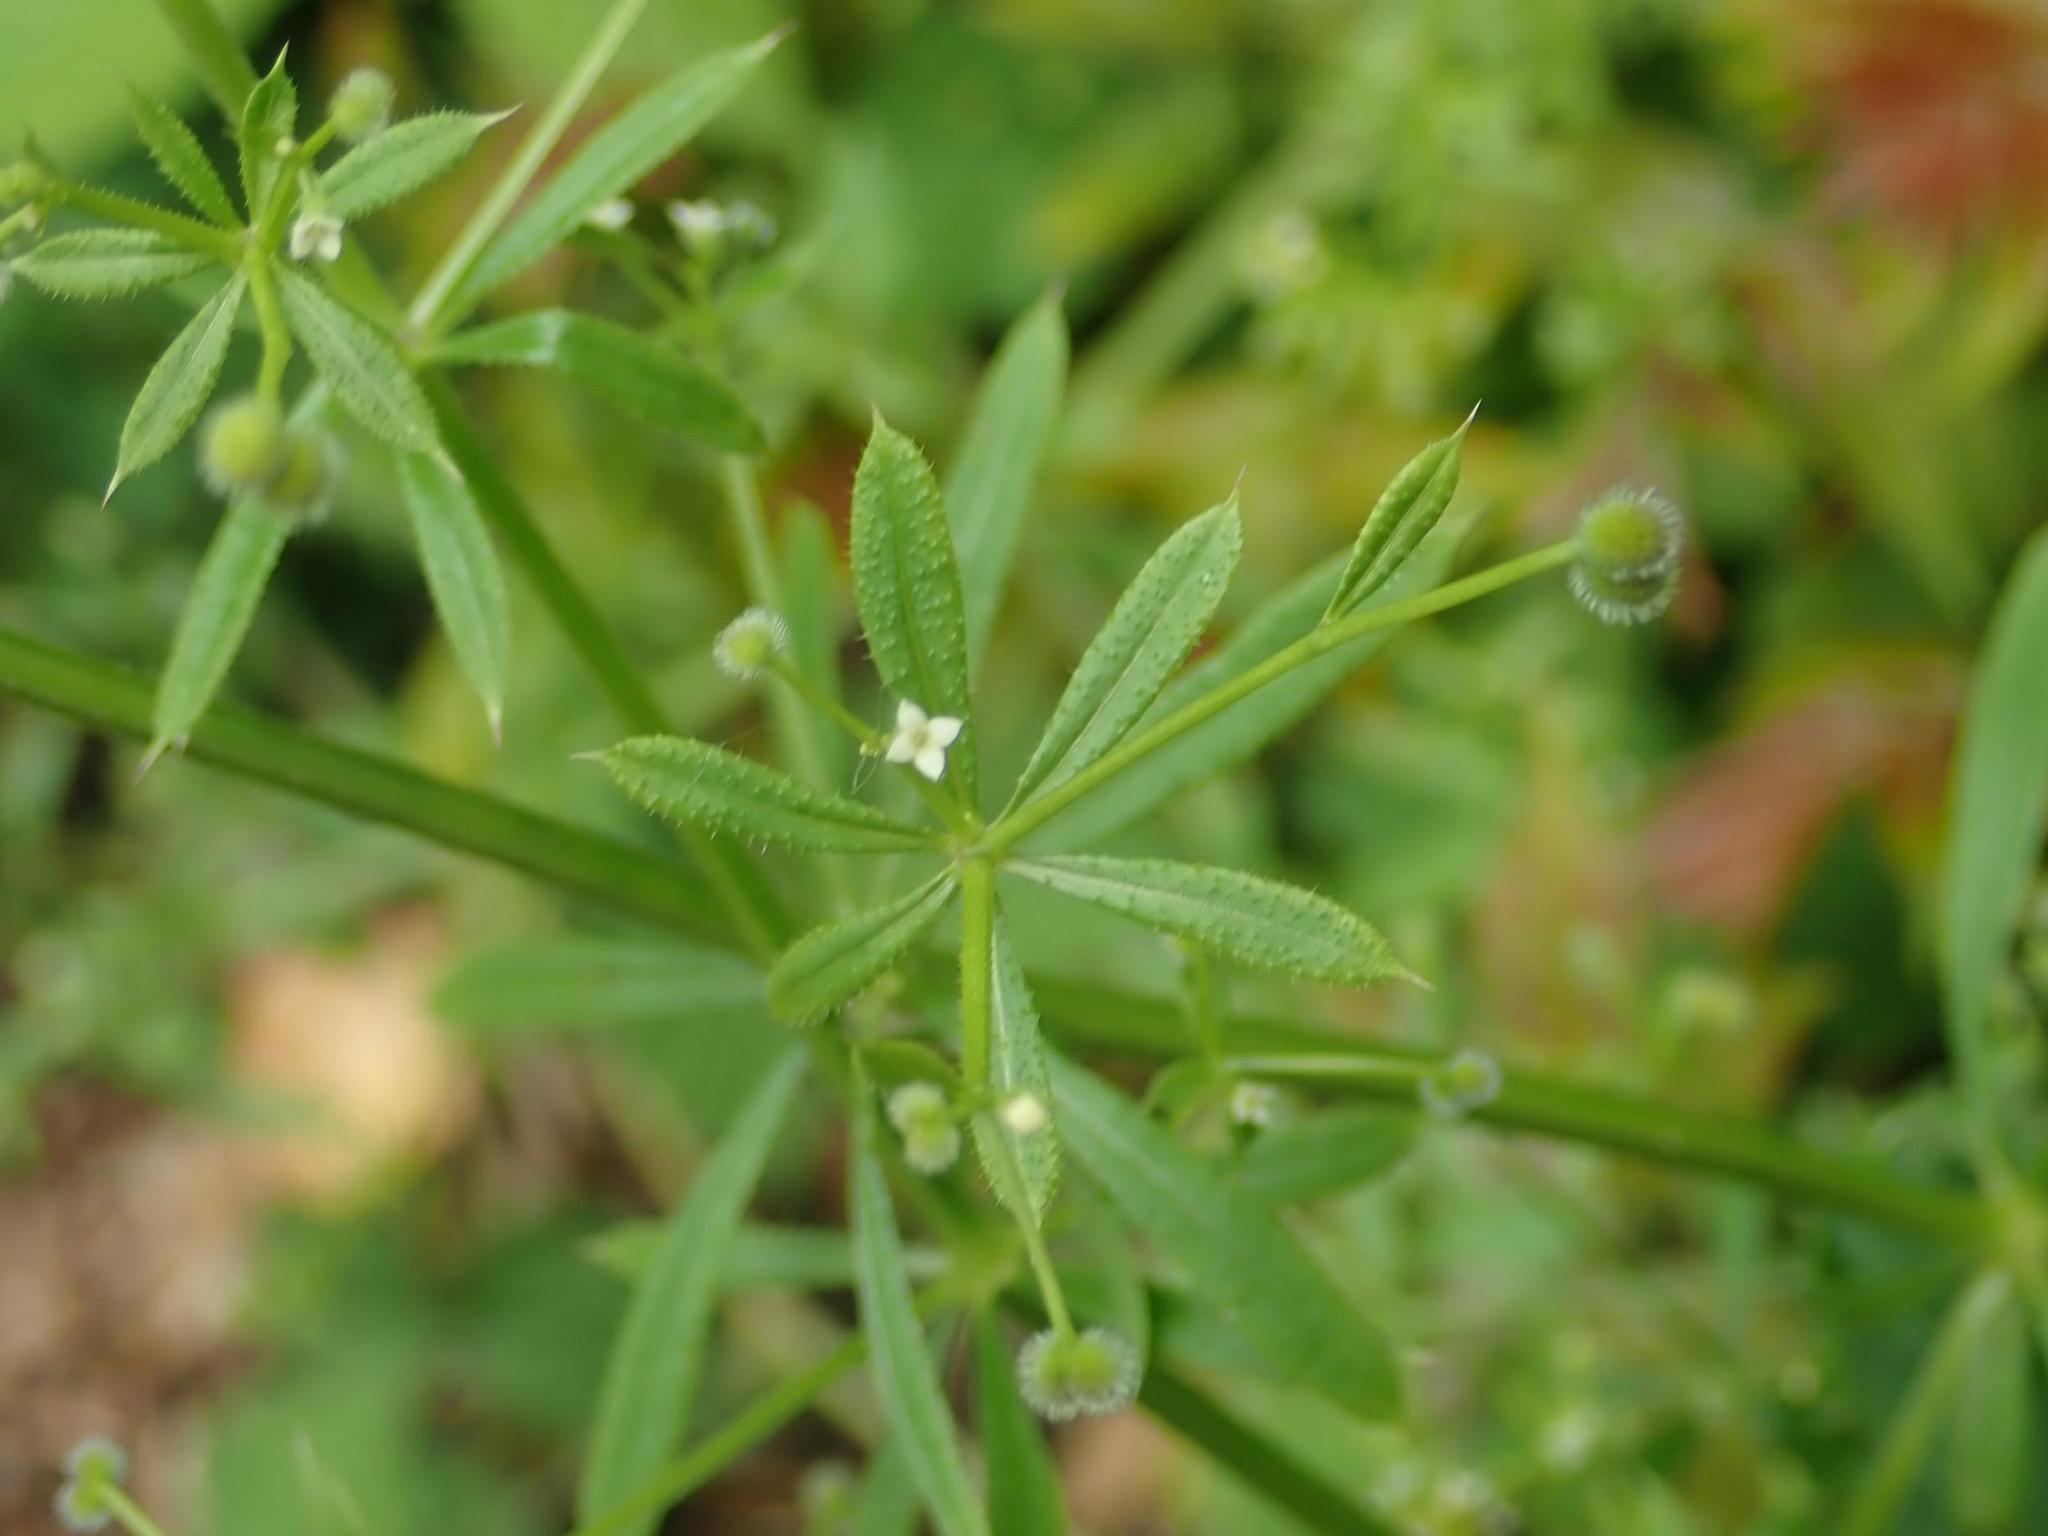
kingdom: Plantae
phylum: Tracheophyta
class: Magnoliopsida
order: Gentianales
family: Rubiaceae
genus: Galium
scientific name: Galium aparine
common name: Cleavers
